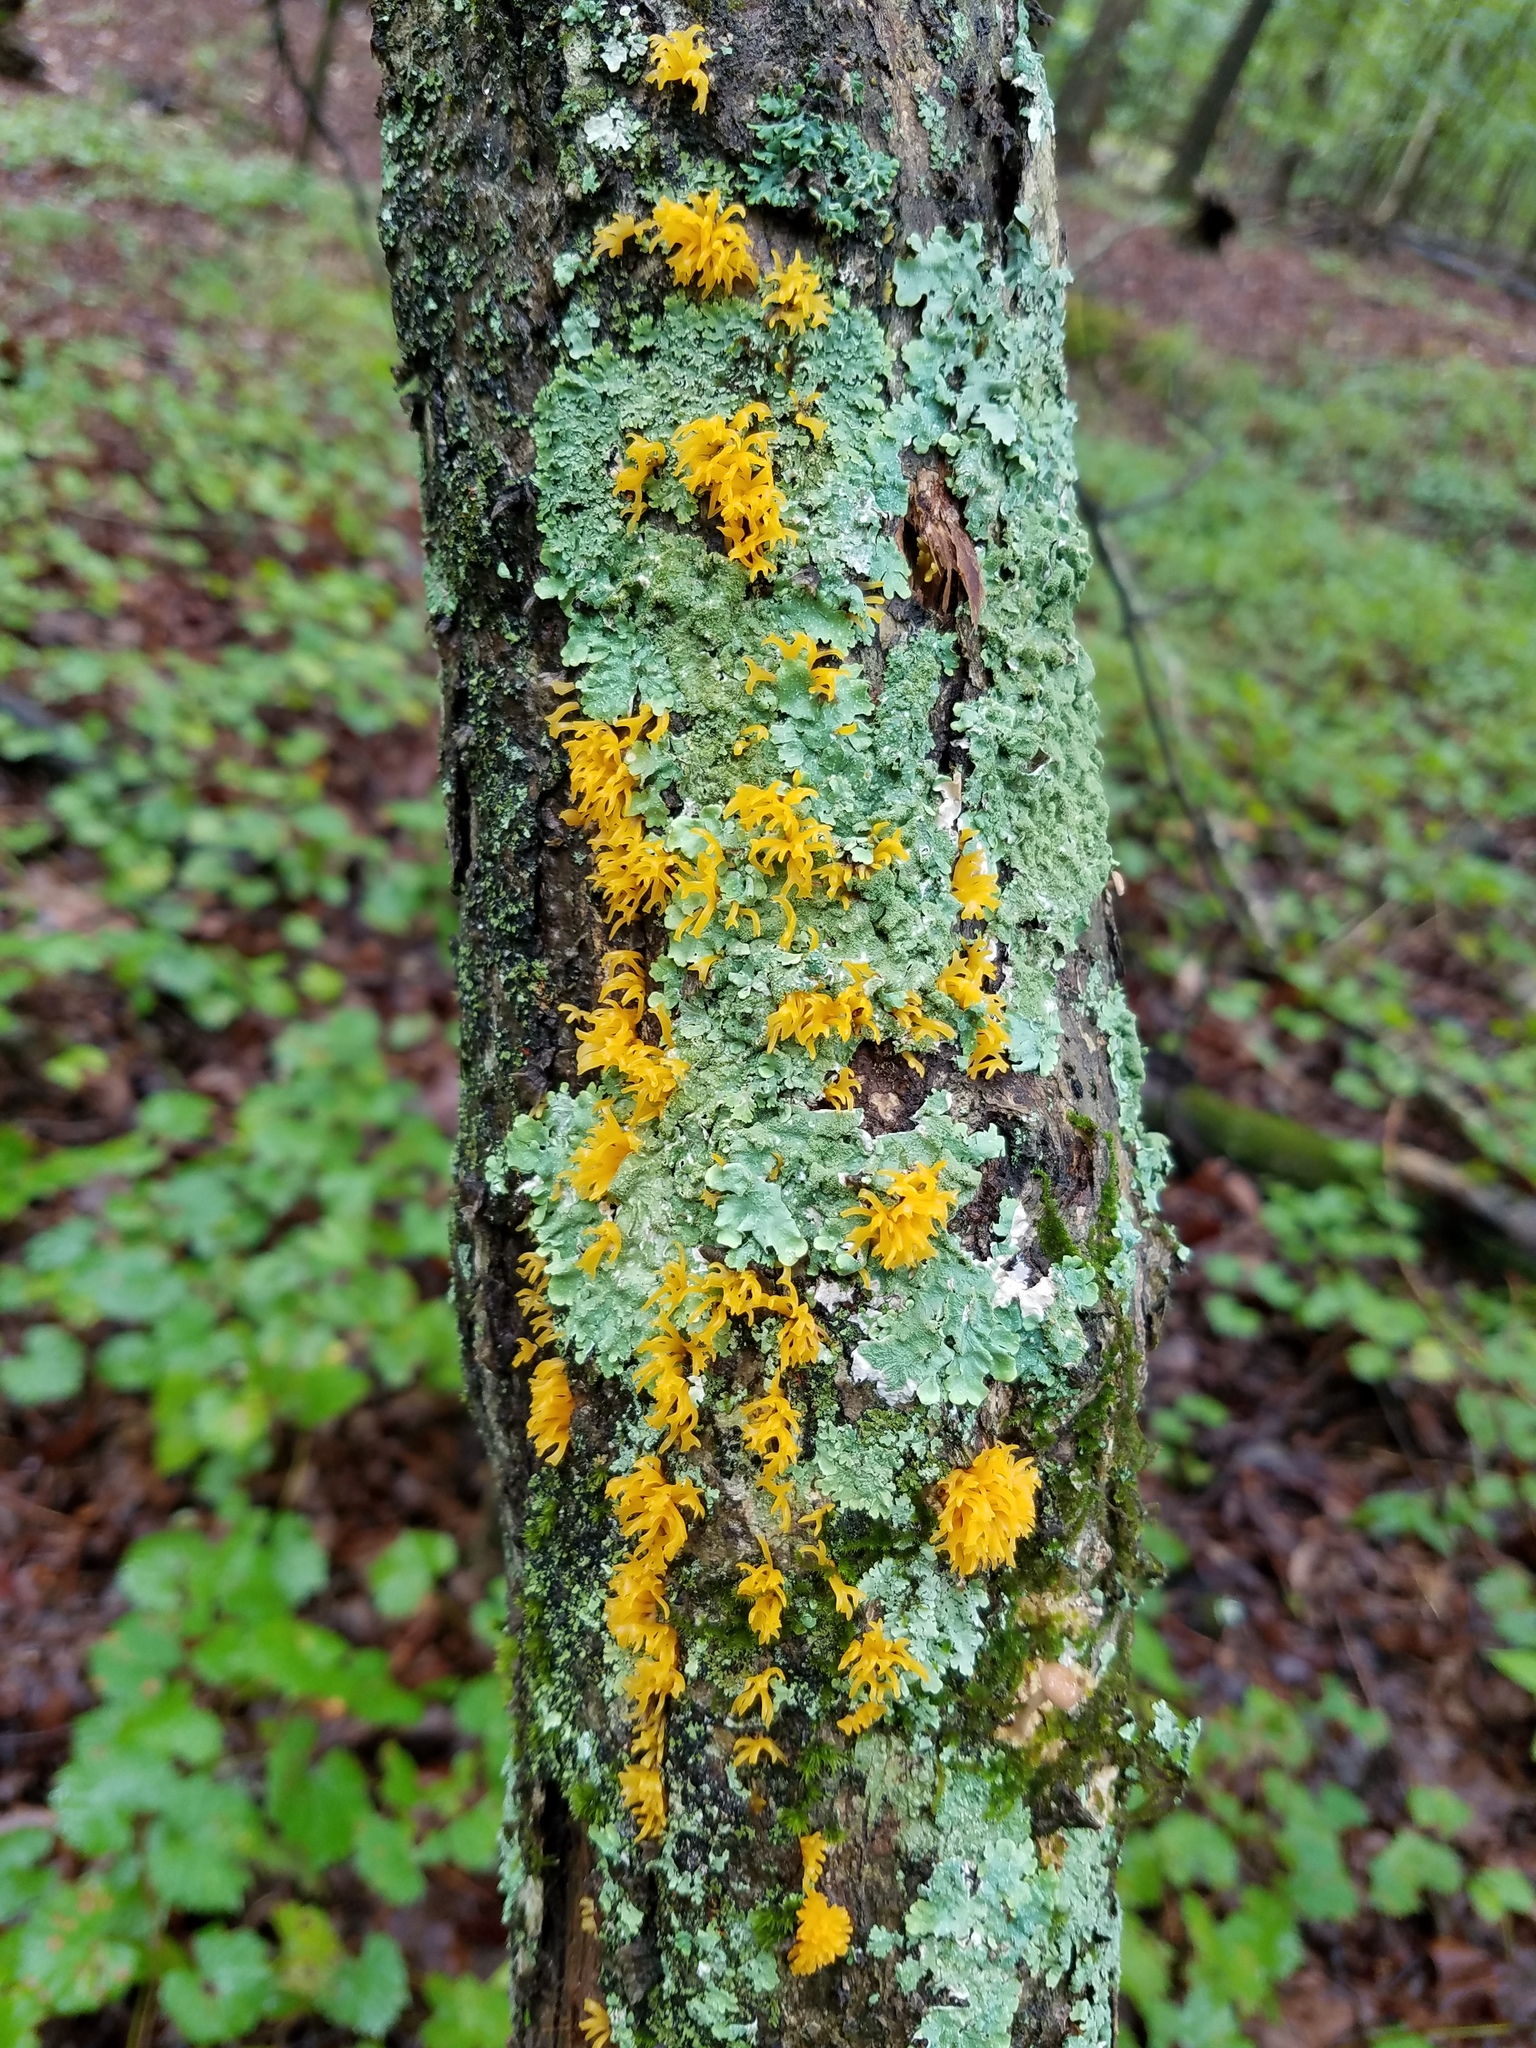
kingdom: Fungi
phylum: Basidiomycota
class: Dacrymycetes
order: Dacrymycetales
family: Dacrymycetaceae
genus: Calocera
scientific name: Calocera cornea
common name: Small stagshorn
